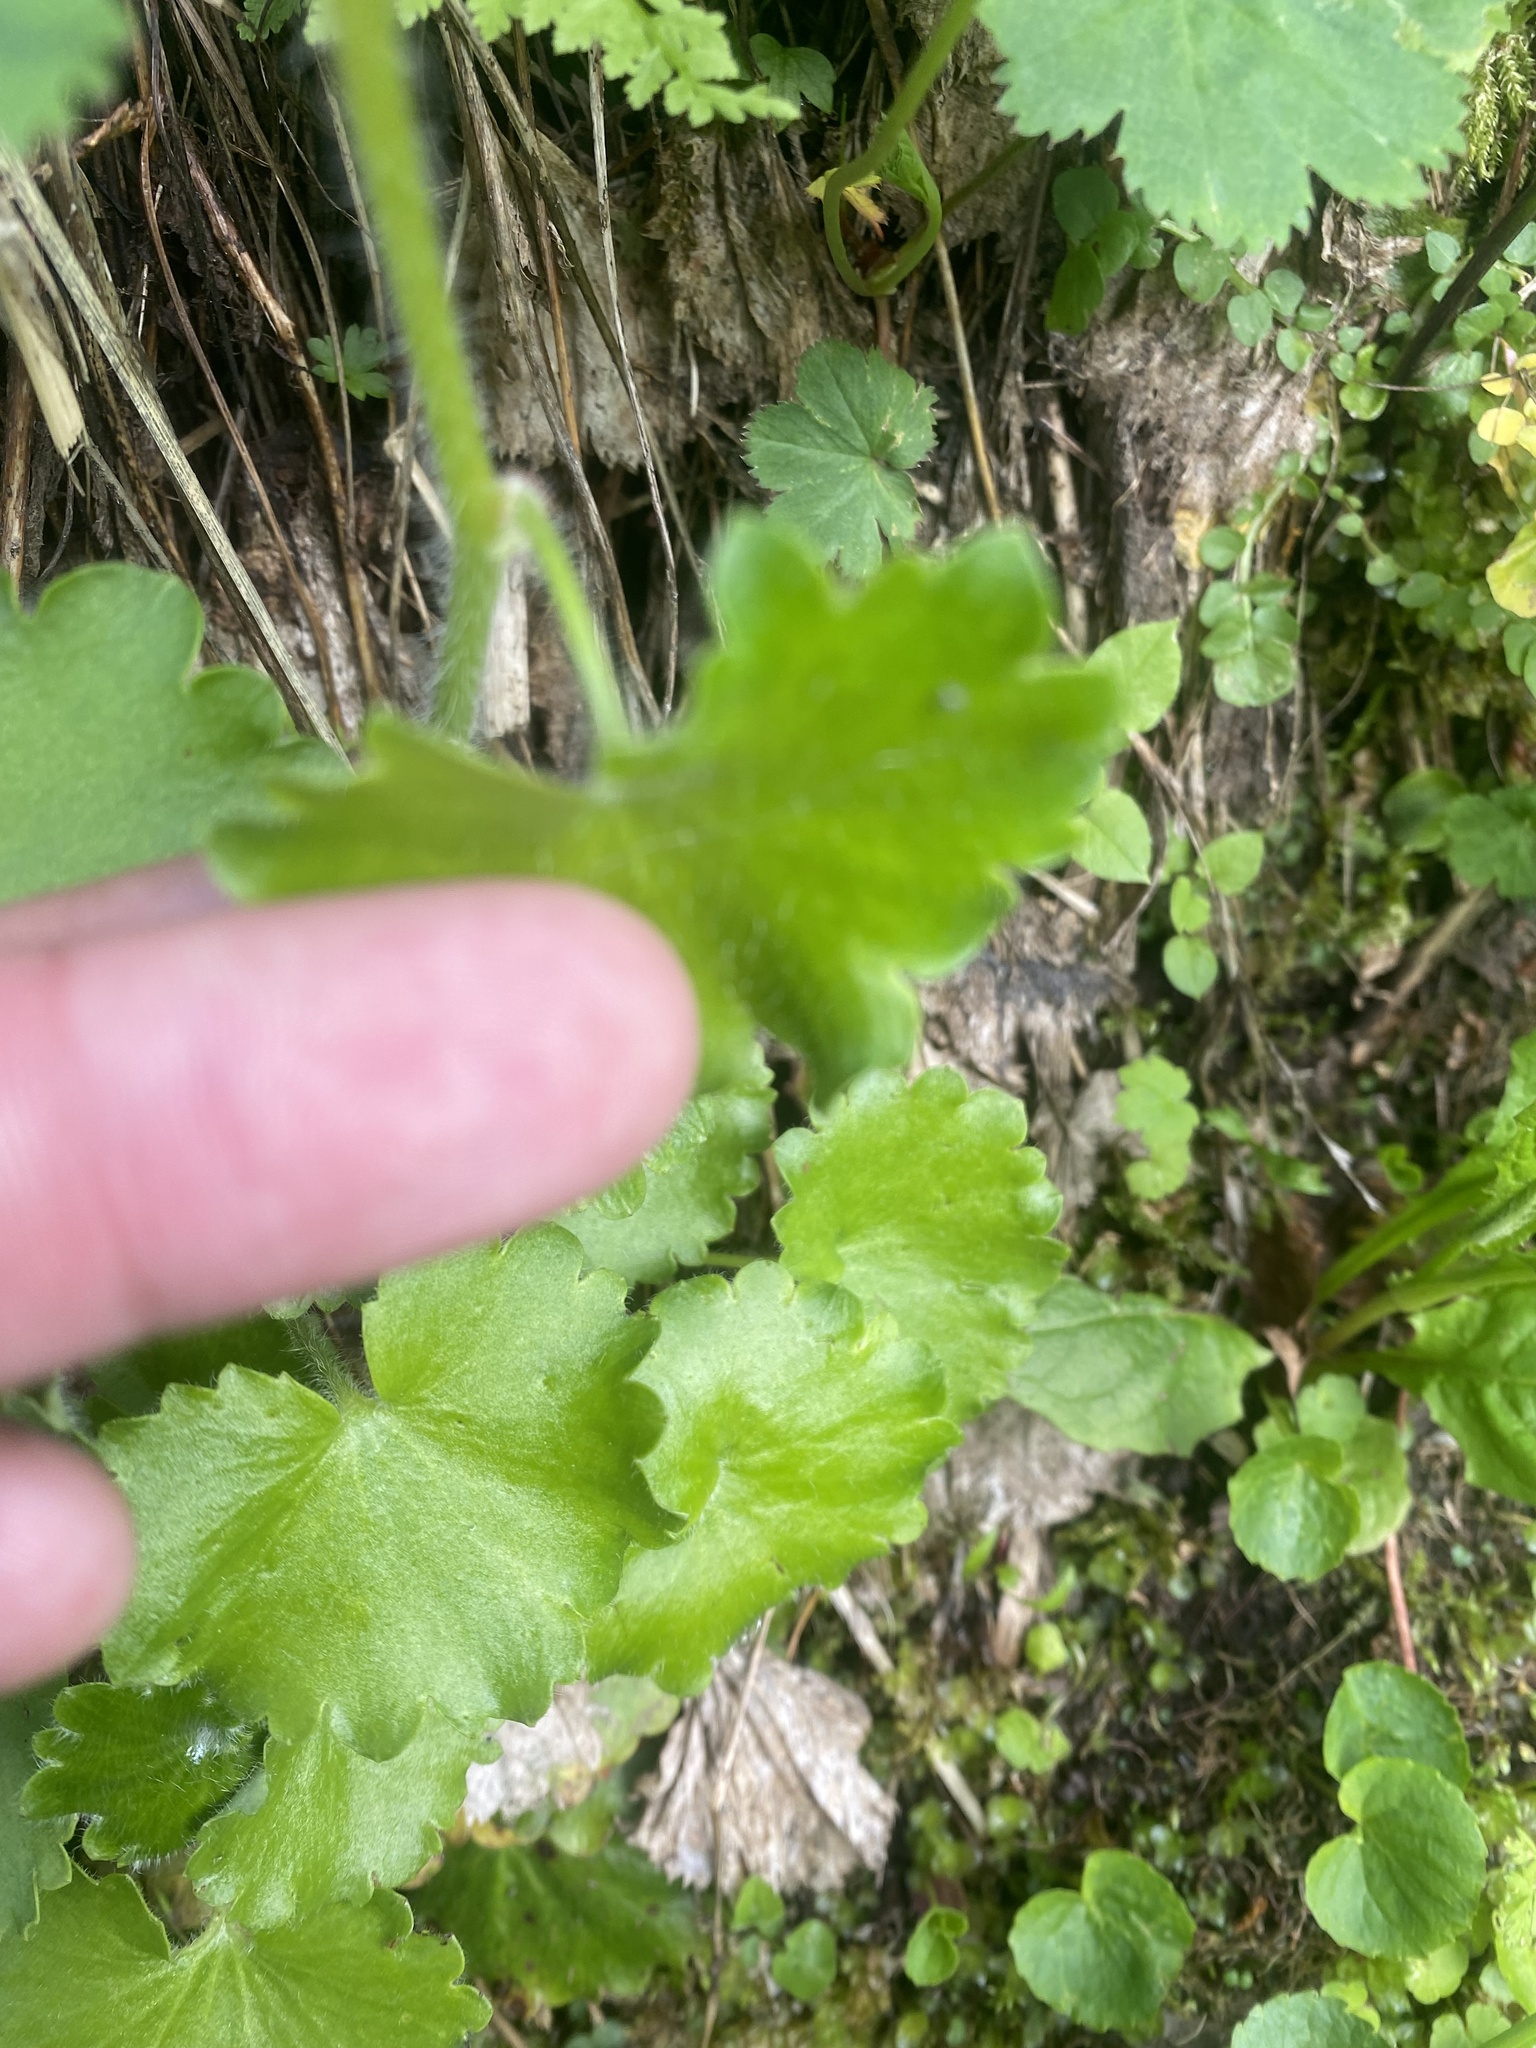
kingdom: Plantae
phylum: Tracheophyta
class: Magnoliopsida
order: Saxifragales
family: Saxifragaceae
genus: Saxifraga
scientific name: Saxifraga rotundifolia
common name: Round-leaved saxifrage
